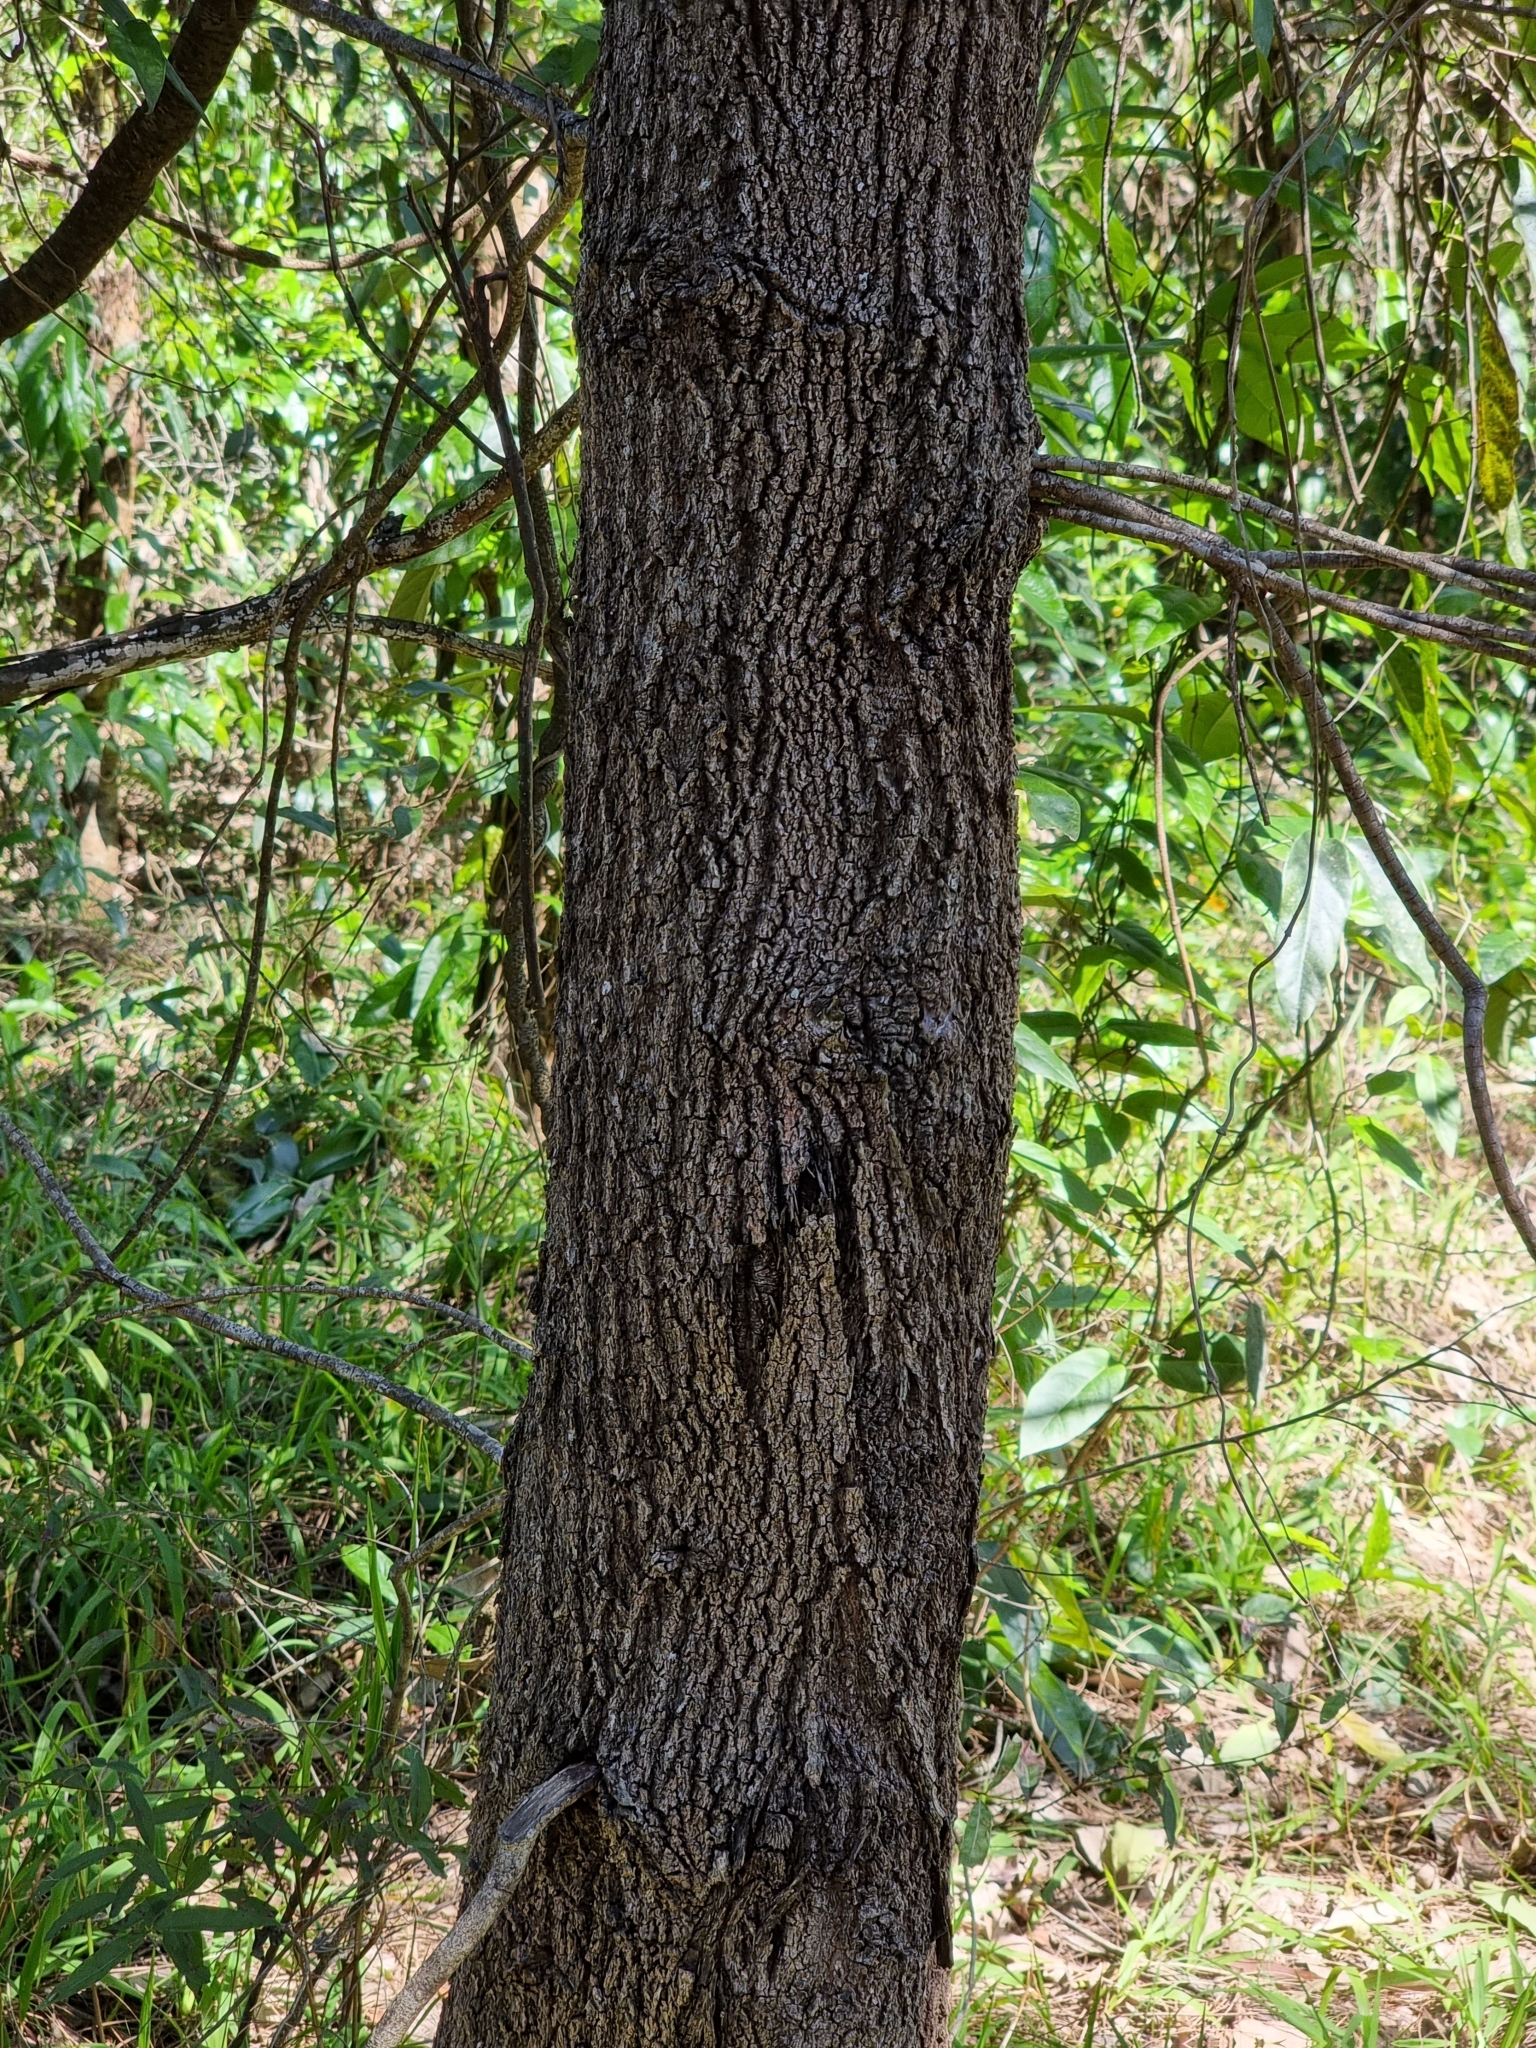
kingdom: Plantae
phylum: Tracheophyta
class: Magnoliopsida
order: Fagales
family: Casuarinaceae
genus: Casuarina
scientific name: Casuarina glauca
